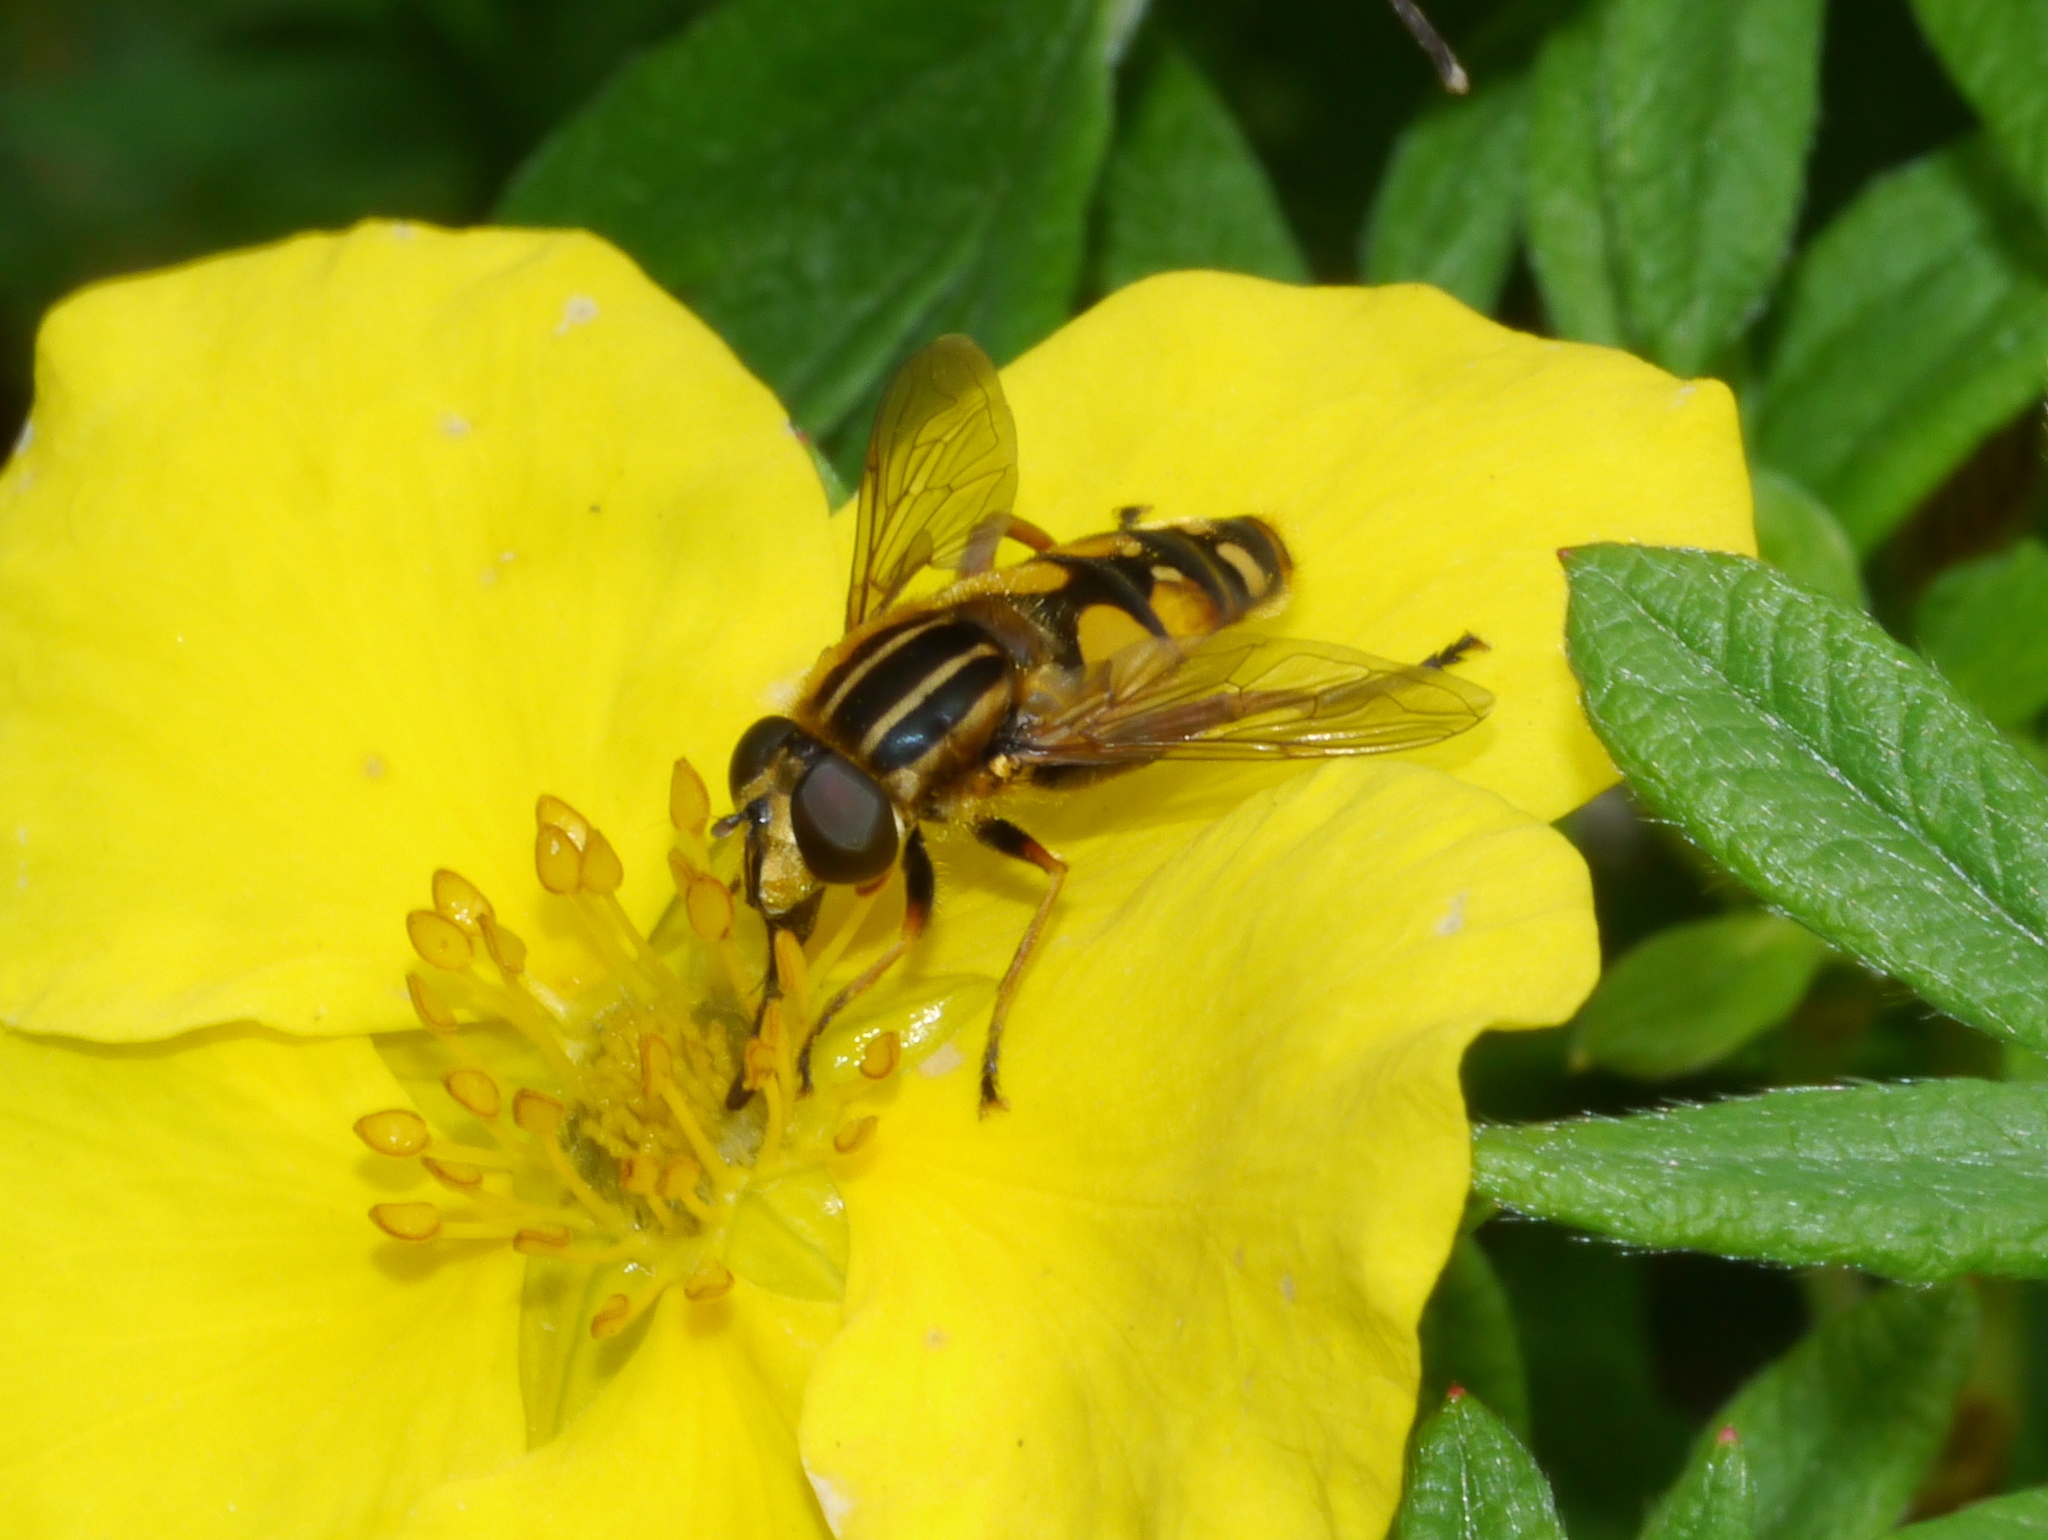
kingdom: Animalia
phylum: Arthropoda
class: Insecta
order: Diptera
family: Syrphidae
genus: Helophilus
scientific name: Helophilus intentus
